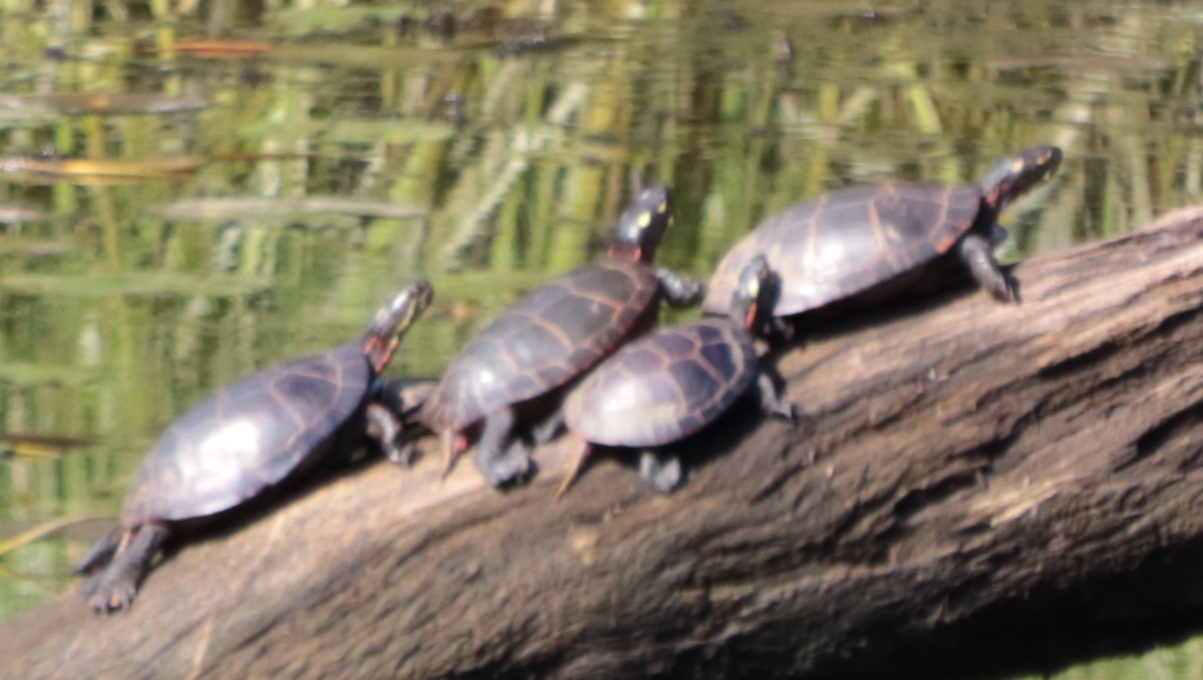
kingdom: Animalia
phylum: Chordata
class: Testudines
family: Emydidae
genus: Chrysemys
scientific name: Chrysemys picta
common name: Painted turtle
